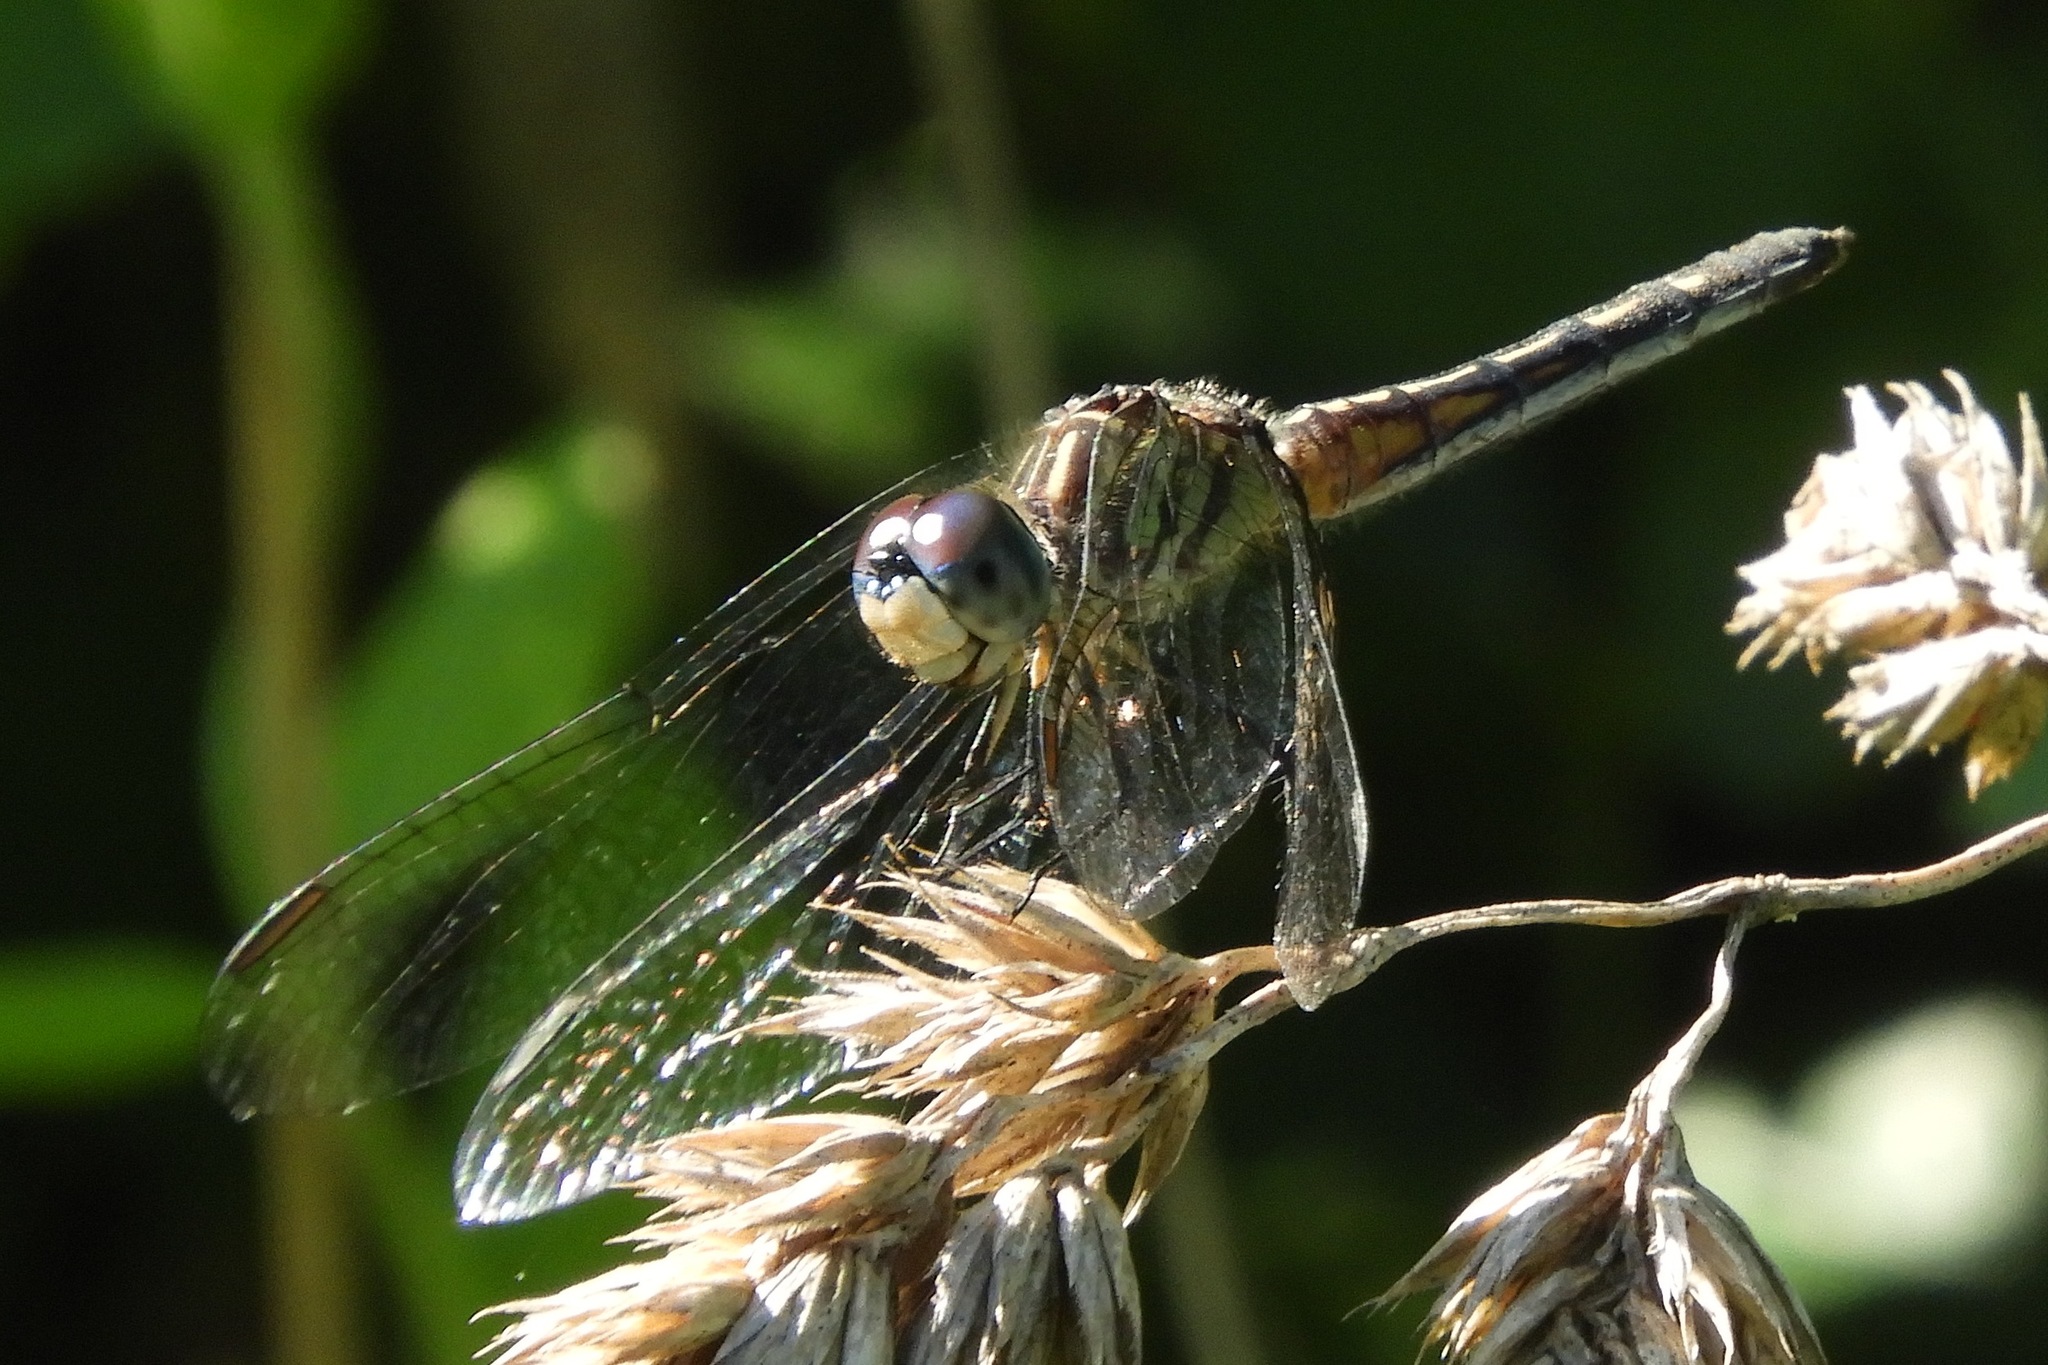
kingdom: Animalia
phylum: Arthropoda
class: Insecta
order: Odonata
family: Libellulidae
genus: Pachydiplax
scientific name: Pachydiplax longipennis
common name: Blue dasher
